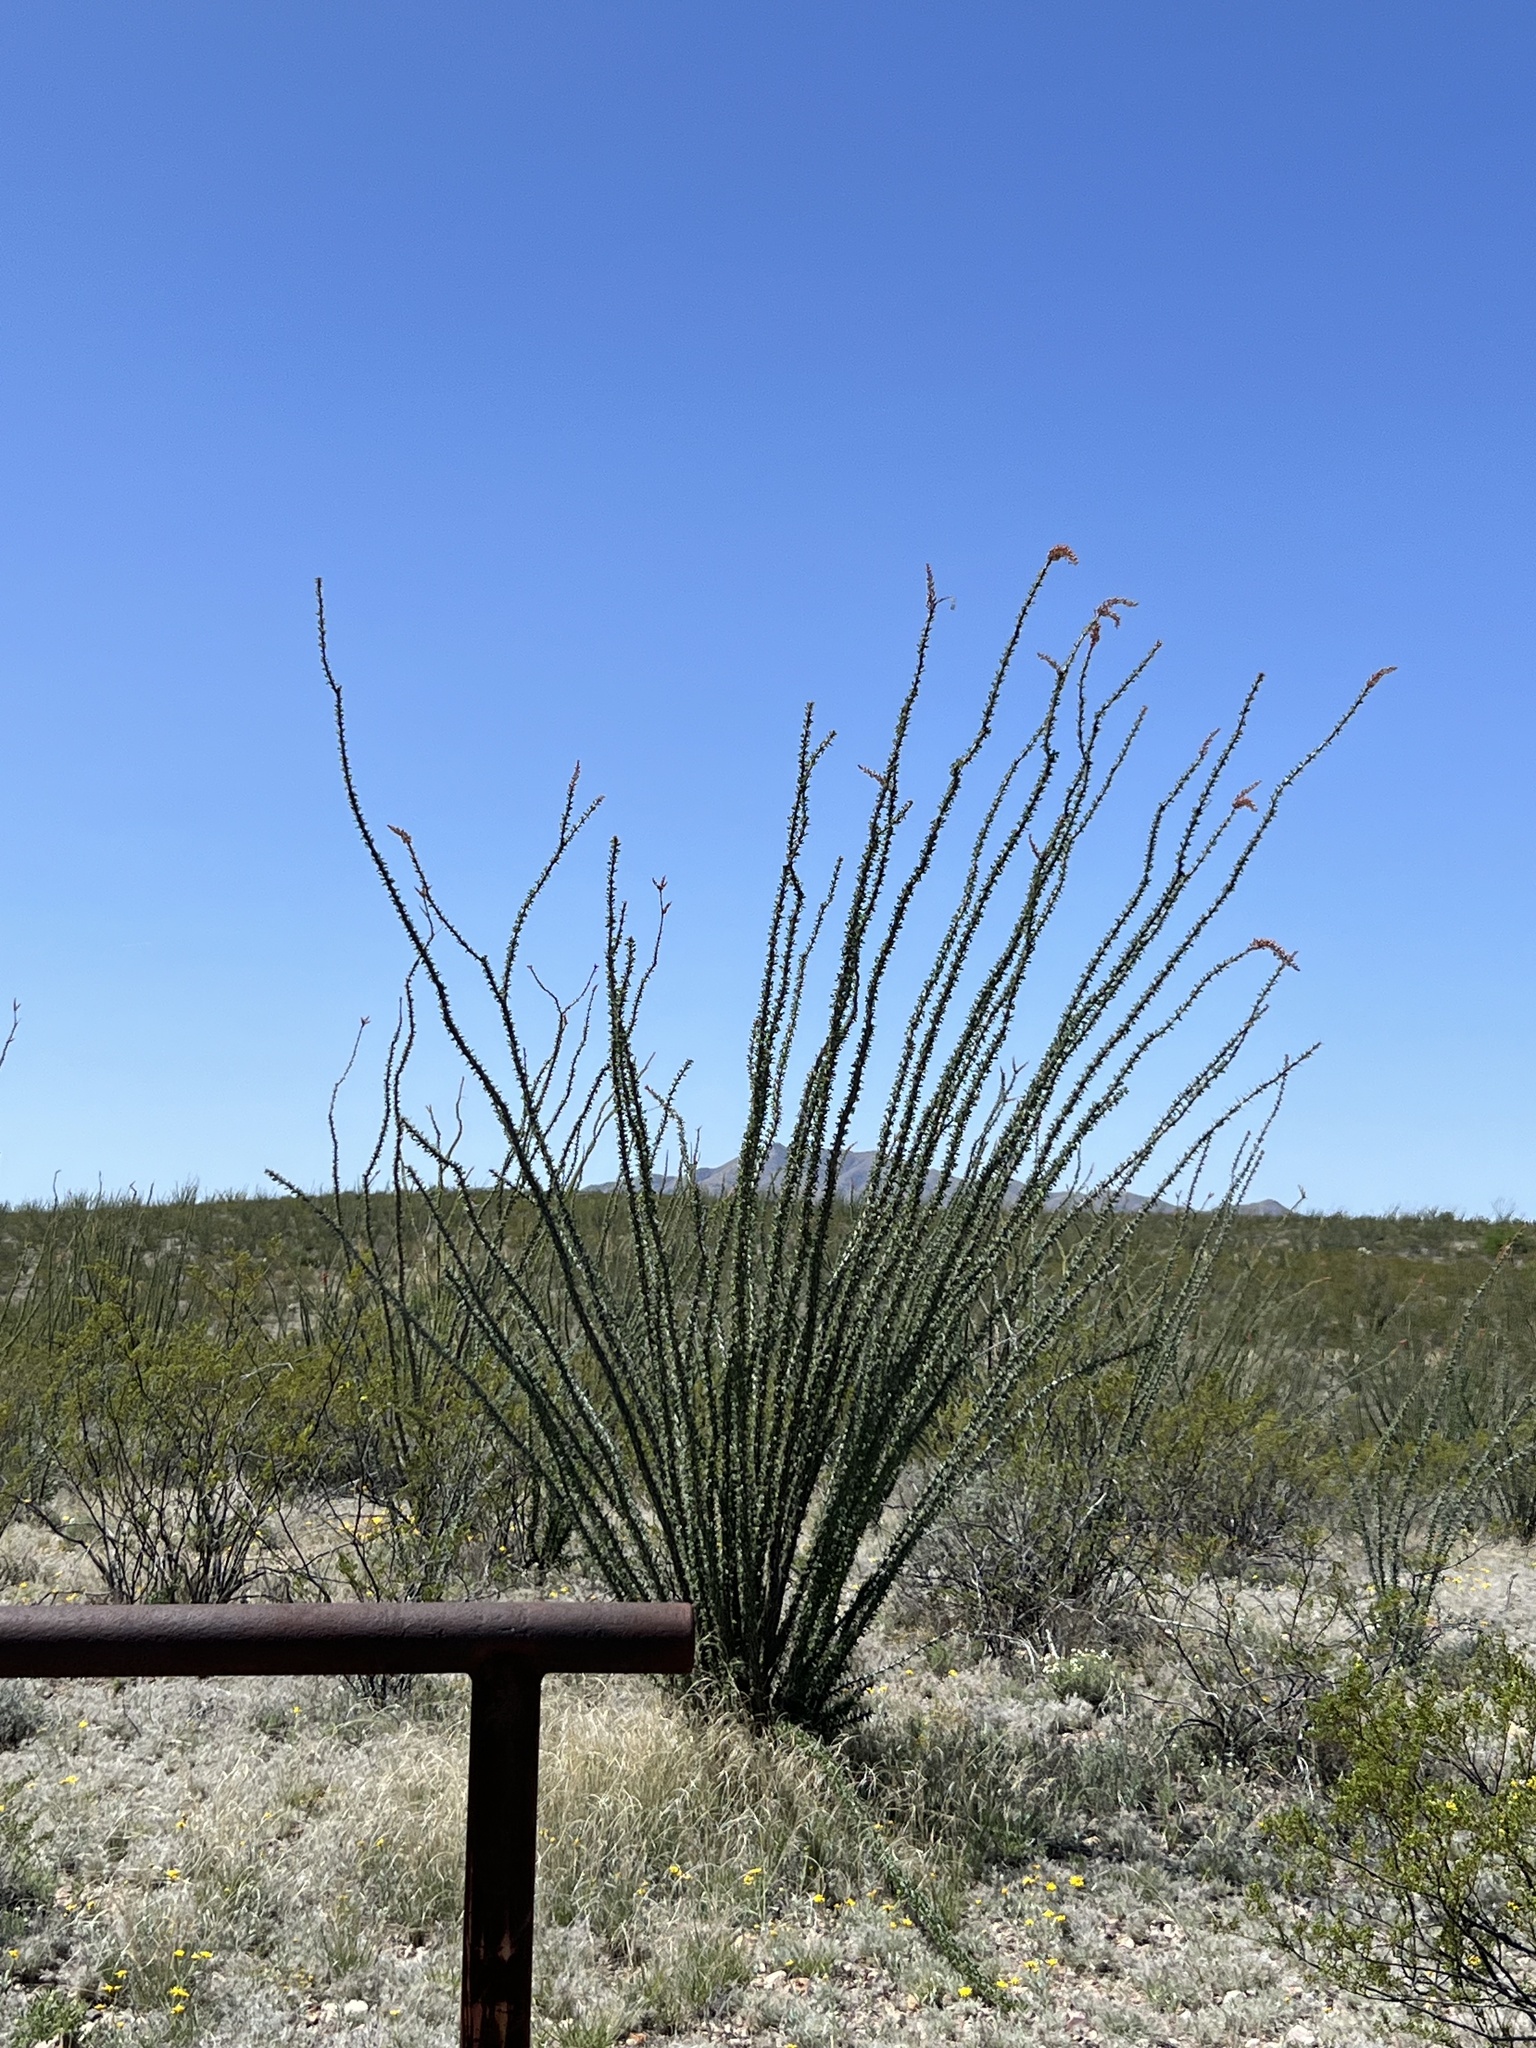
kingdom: Plantae
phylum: Tracheophyta
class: Magnoliopsida
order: Ericales
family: Fouquieriaceae
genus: Fouquieria
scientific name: Fouquieria splendens
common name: Vine-cactus
